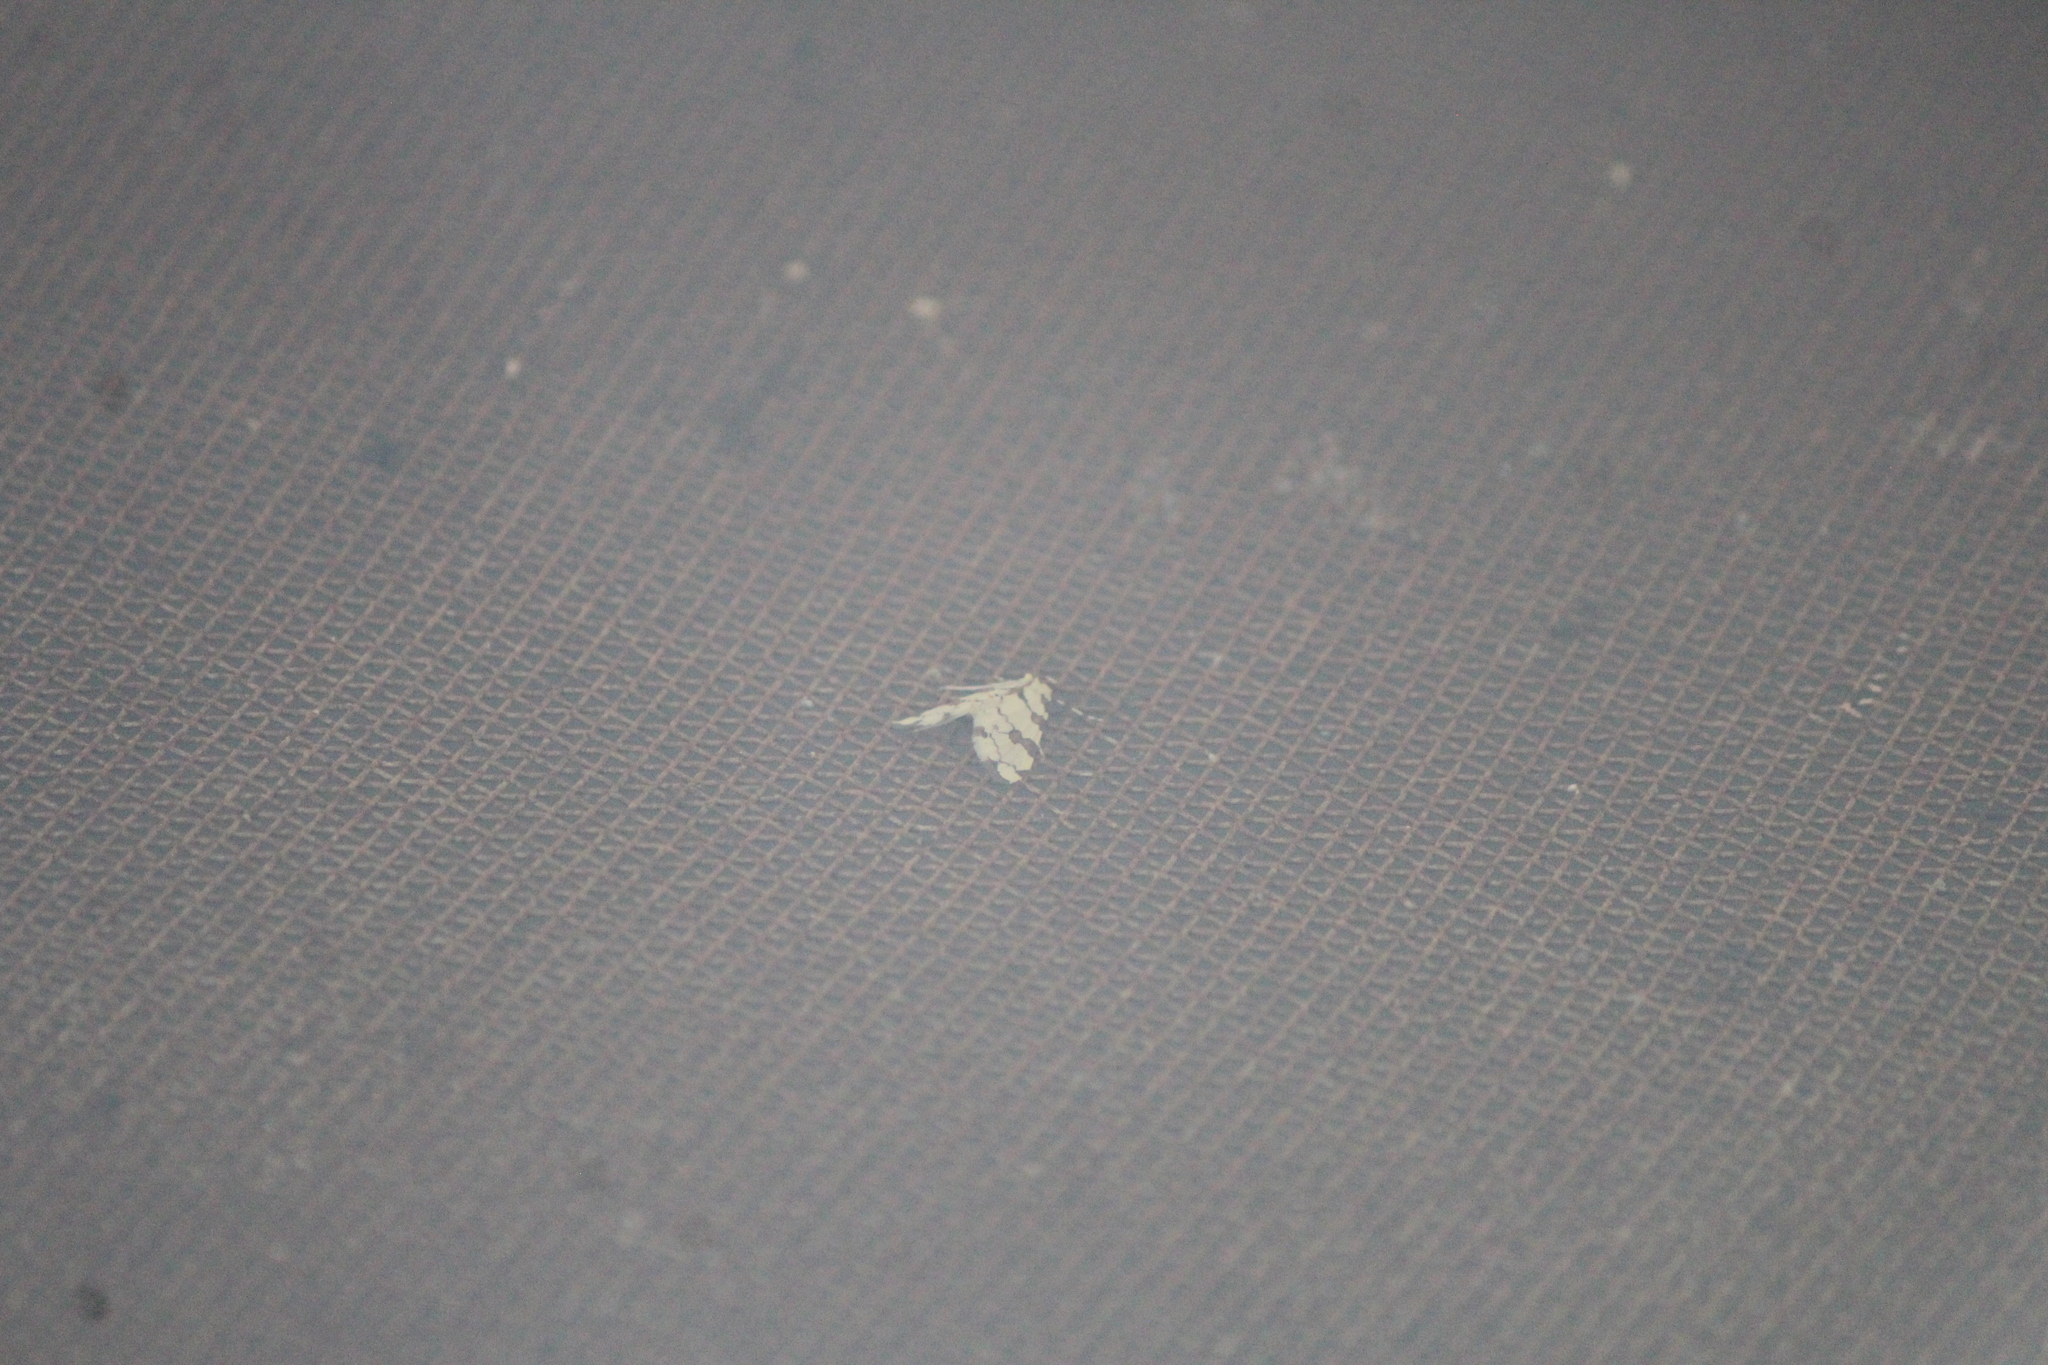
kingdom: Animalia
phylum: Arthropoda
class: Insecta
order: Lepidoptera
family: Crambidae
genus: Conchylodes
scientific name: Conchylodes
